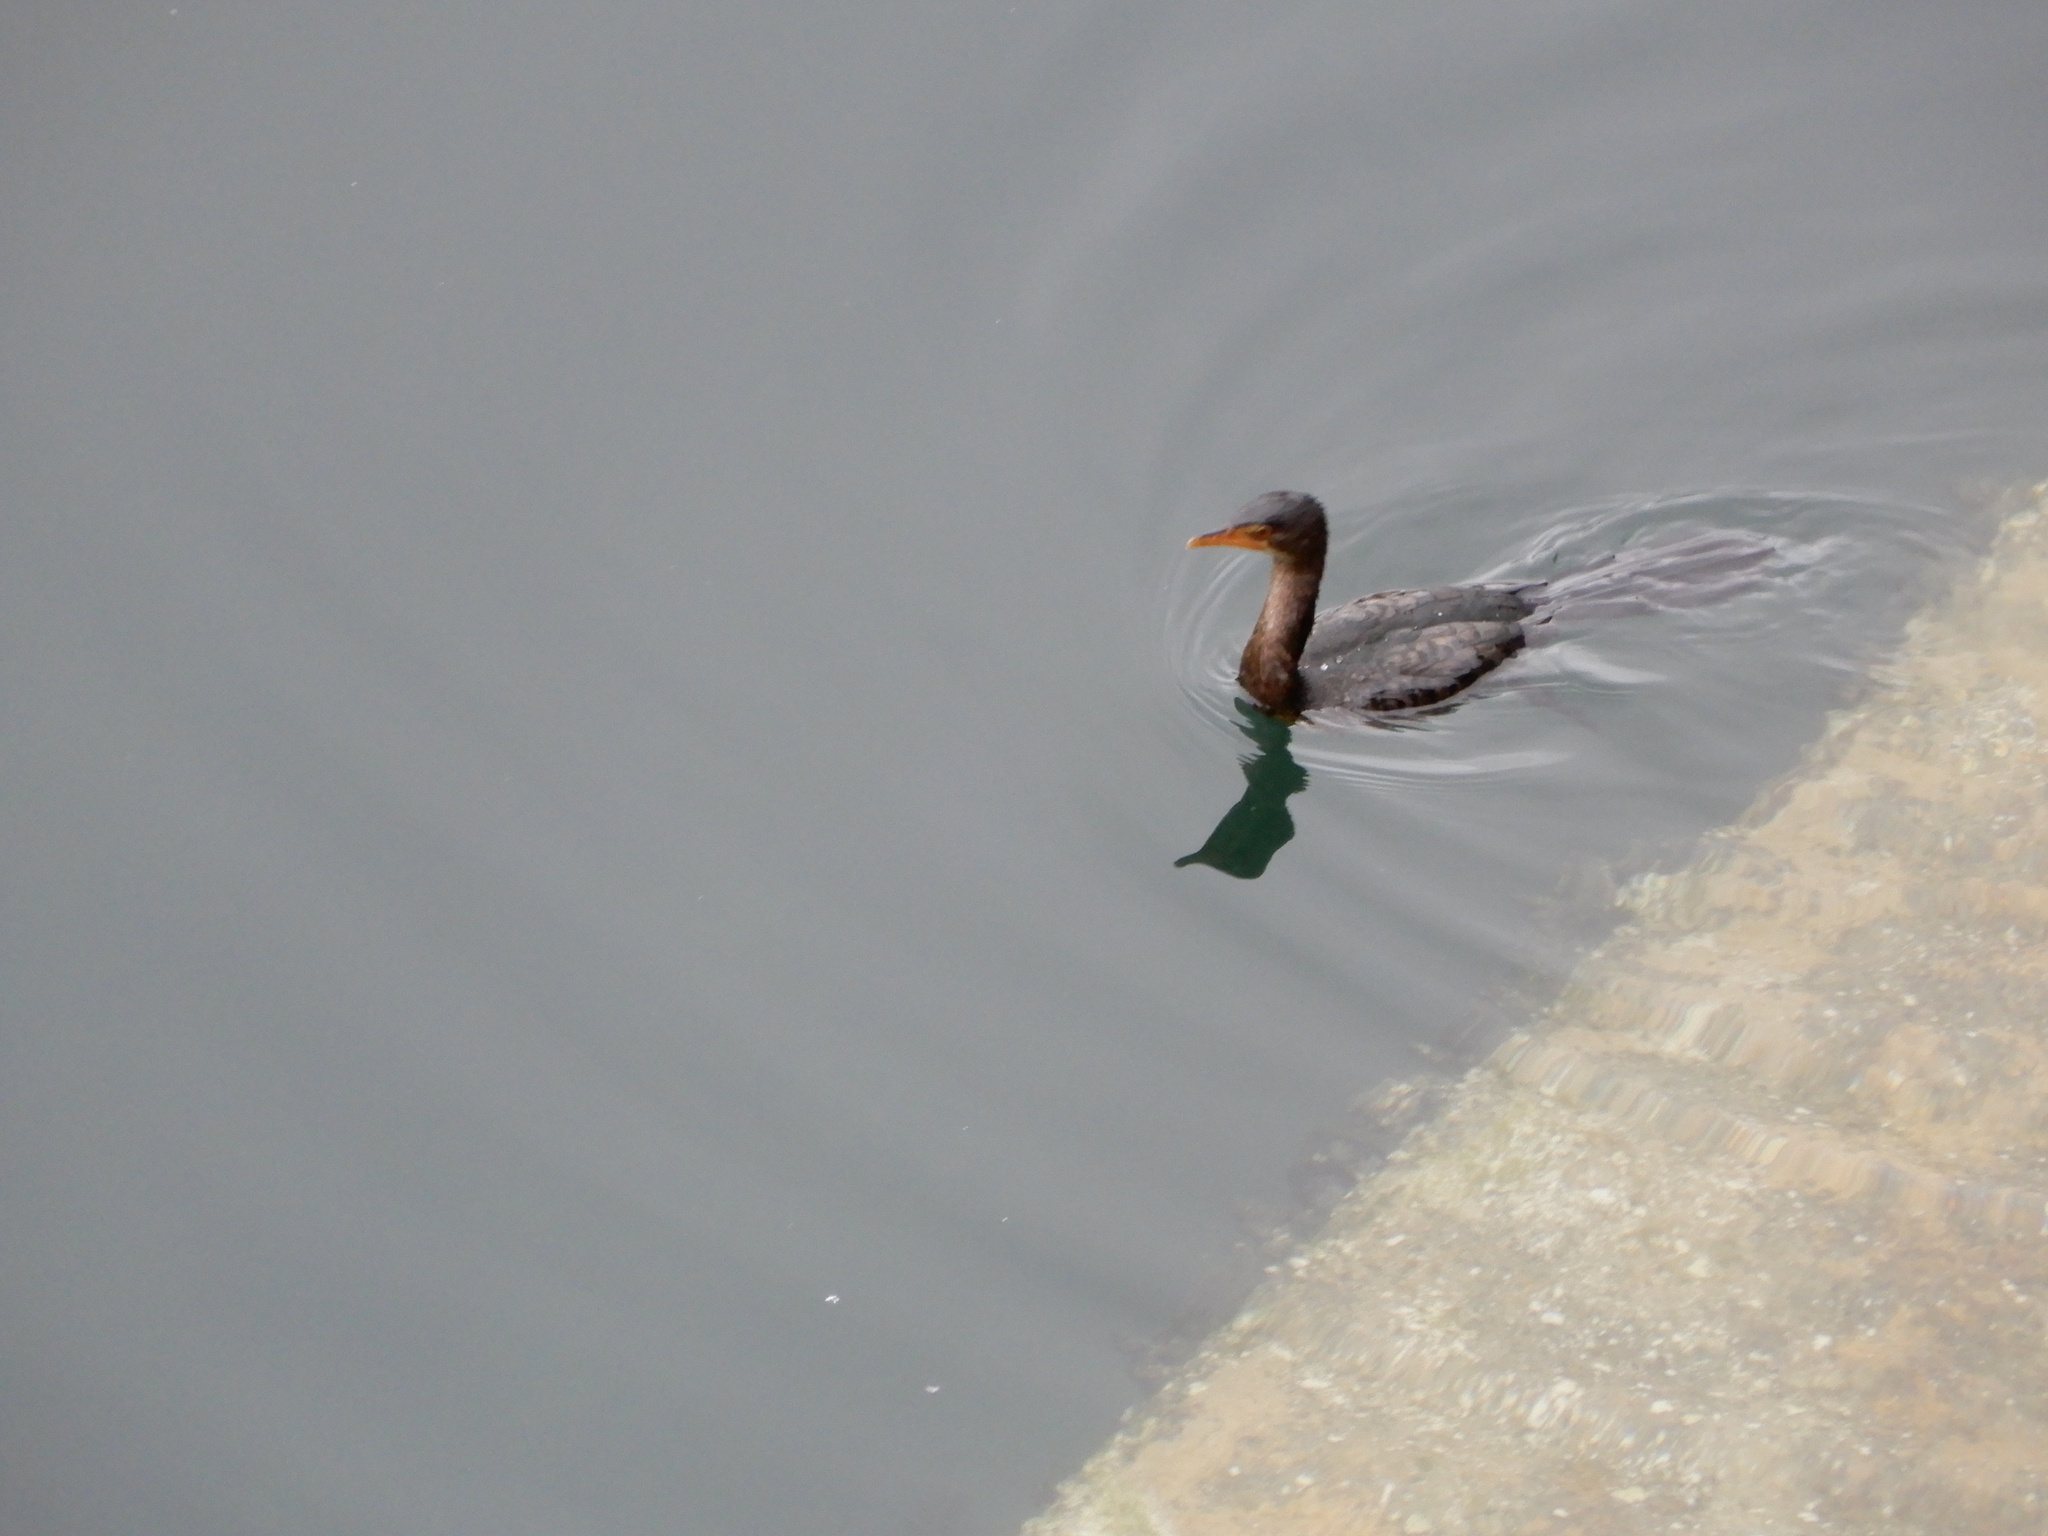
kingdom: Animalia
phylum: Chordata
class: Aves
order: Suliformes
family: Phalacrocoracidae
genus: Microcarbo
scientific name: Microcarbo africanus
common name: Long-tailed cormorant
